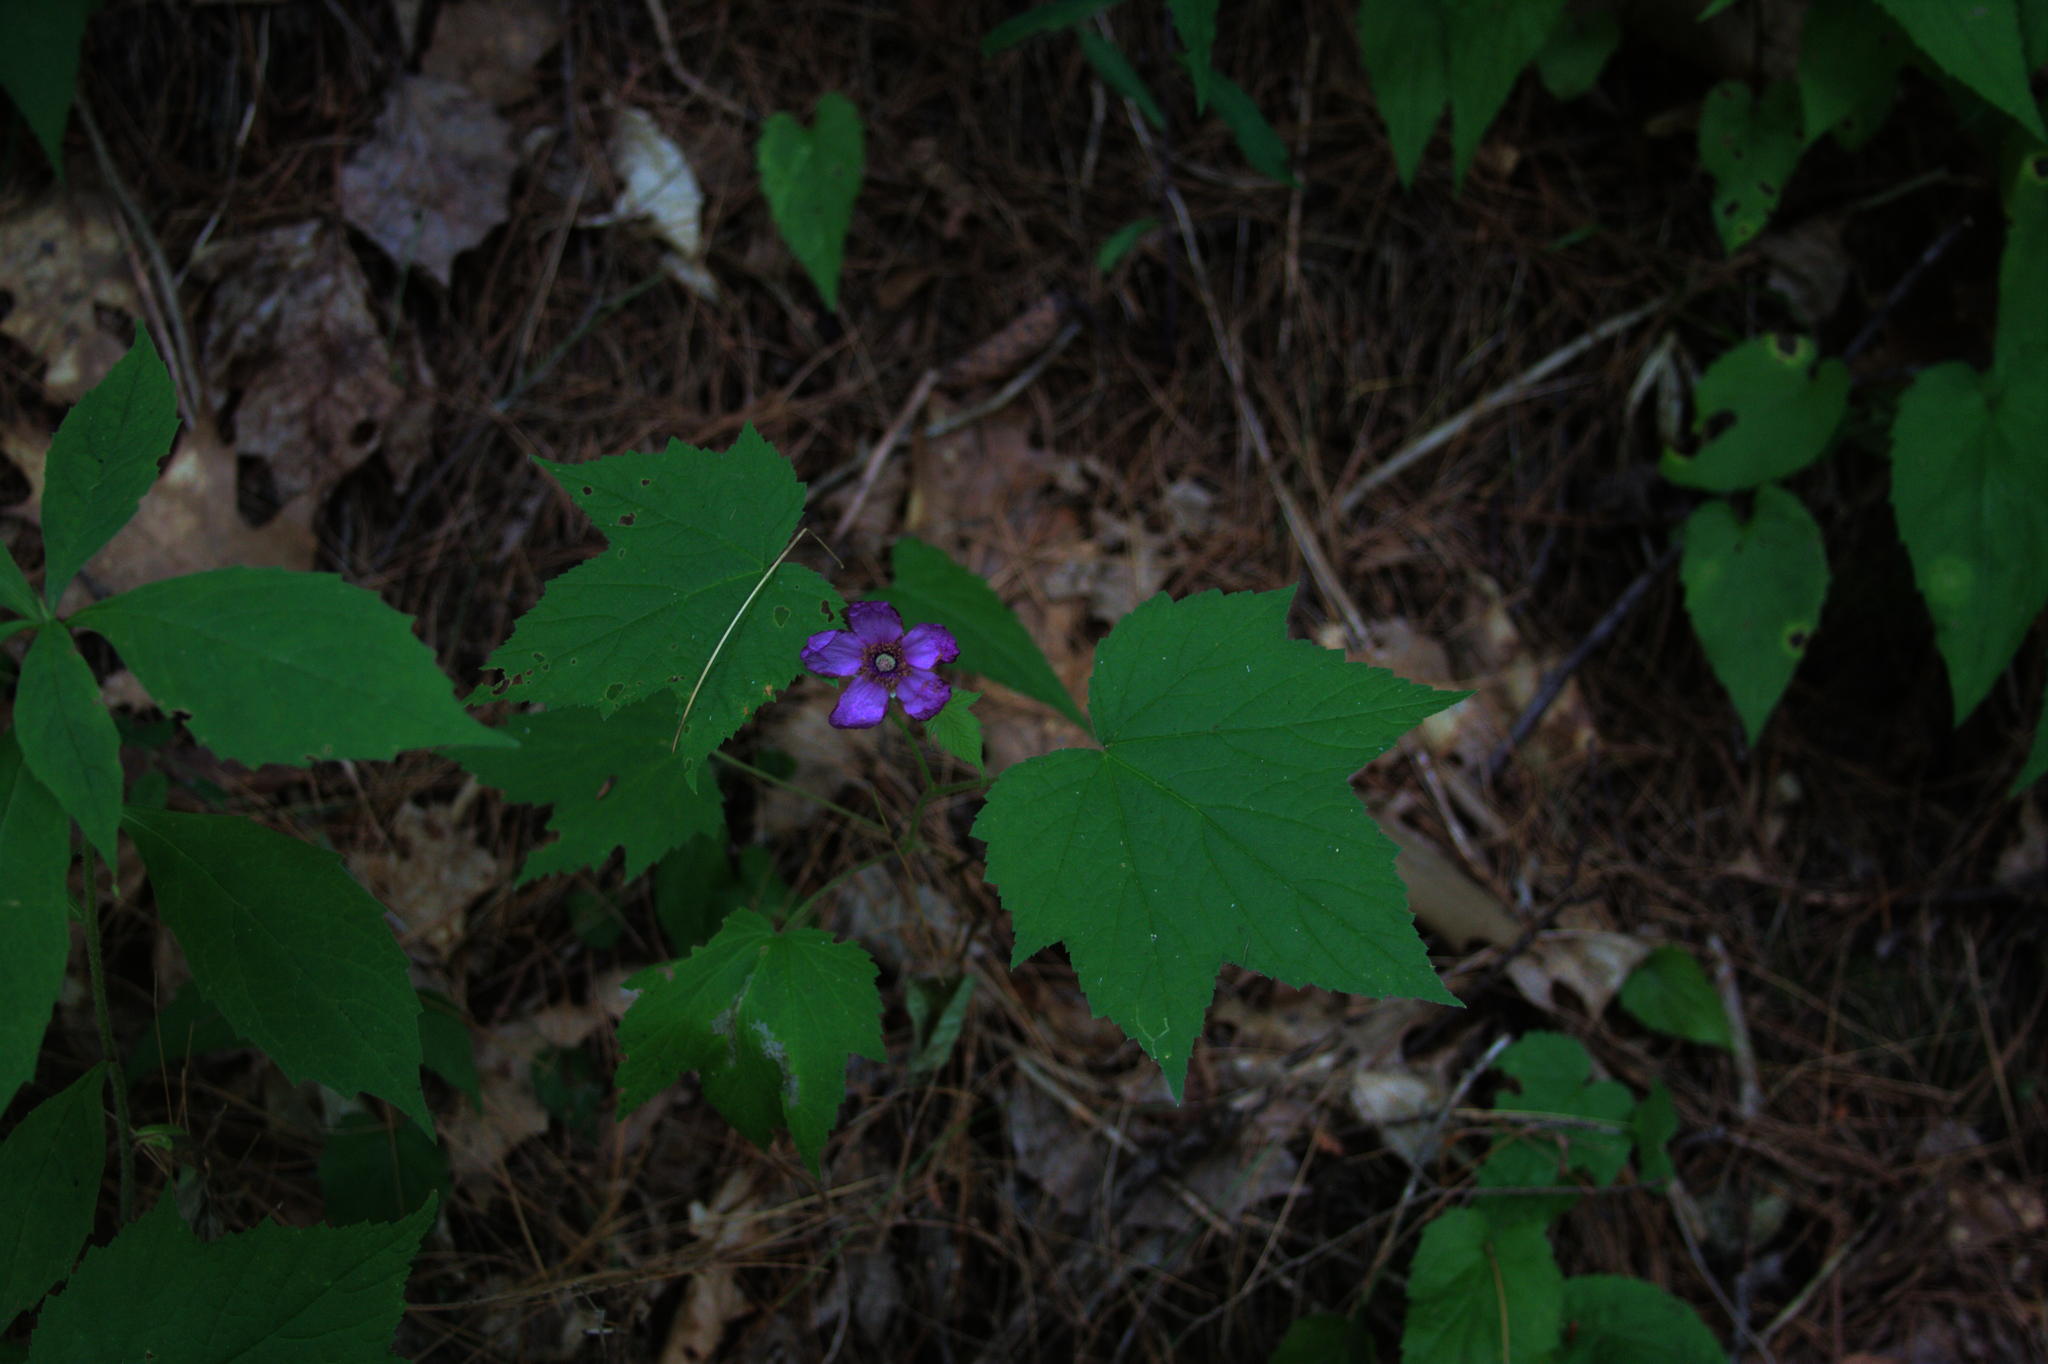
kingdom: Plantae
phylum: Tracheophyta
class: Magnoliopsida
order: Rosales
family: Rosaceae
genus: Rubus
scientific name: Rubus odoratus
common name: Purple-flowered raspberry
